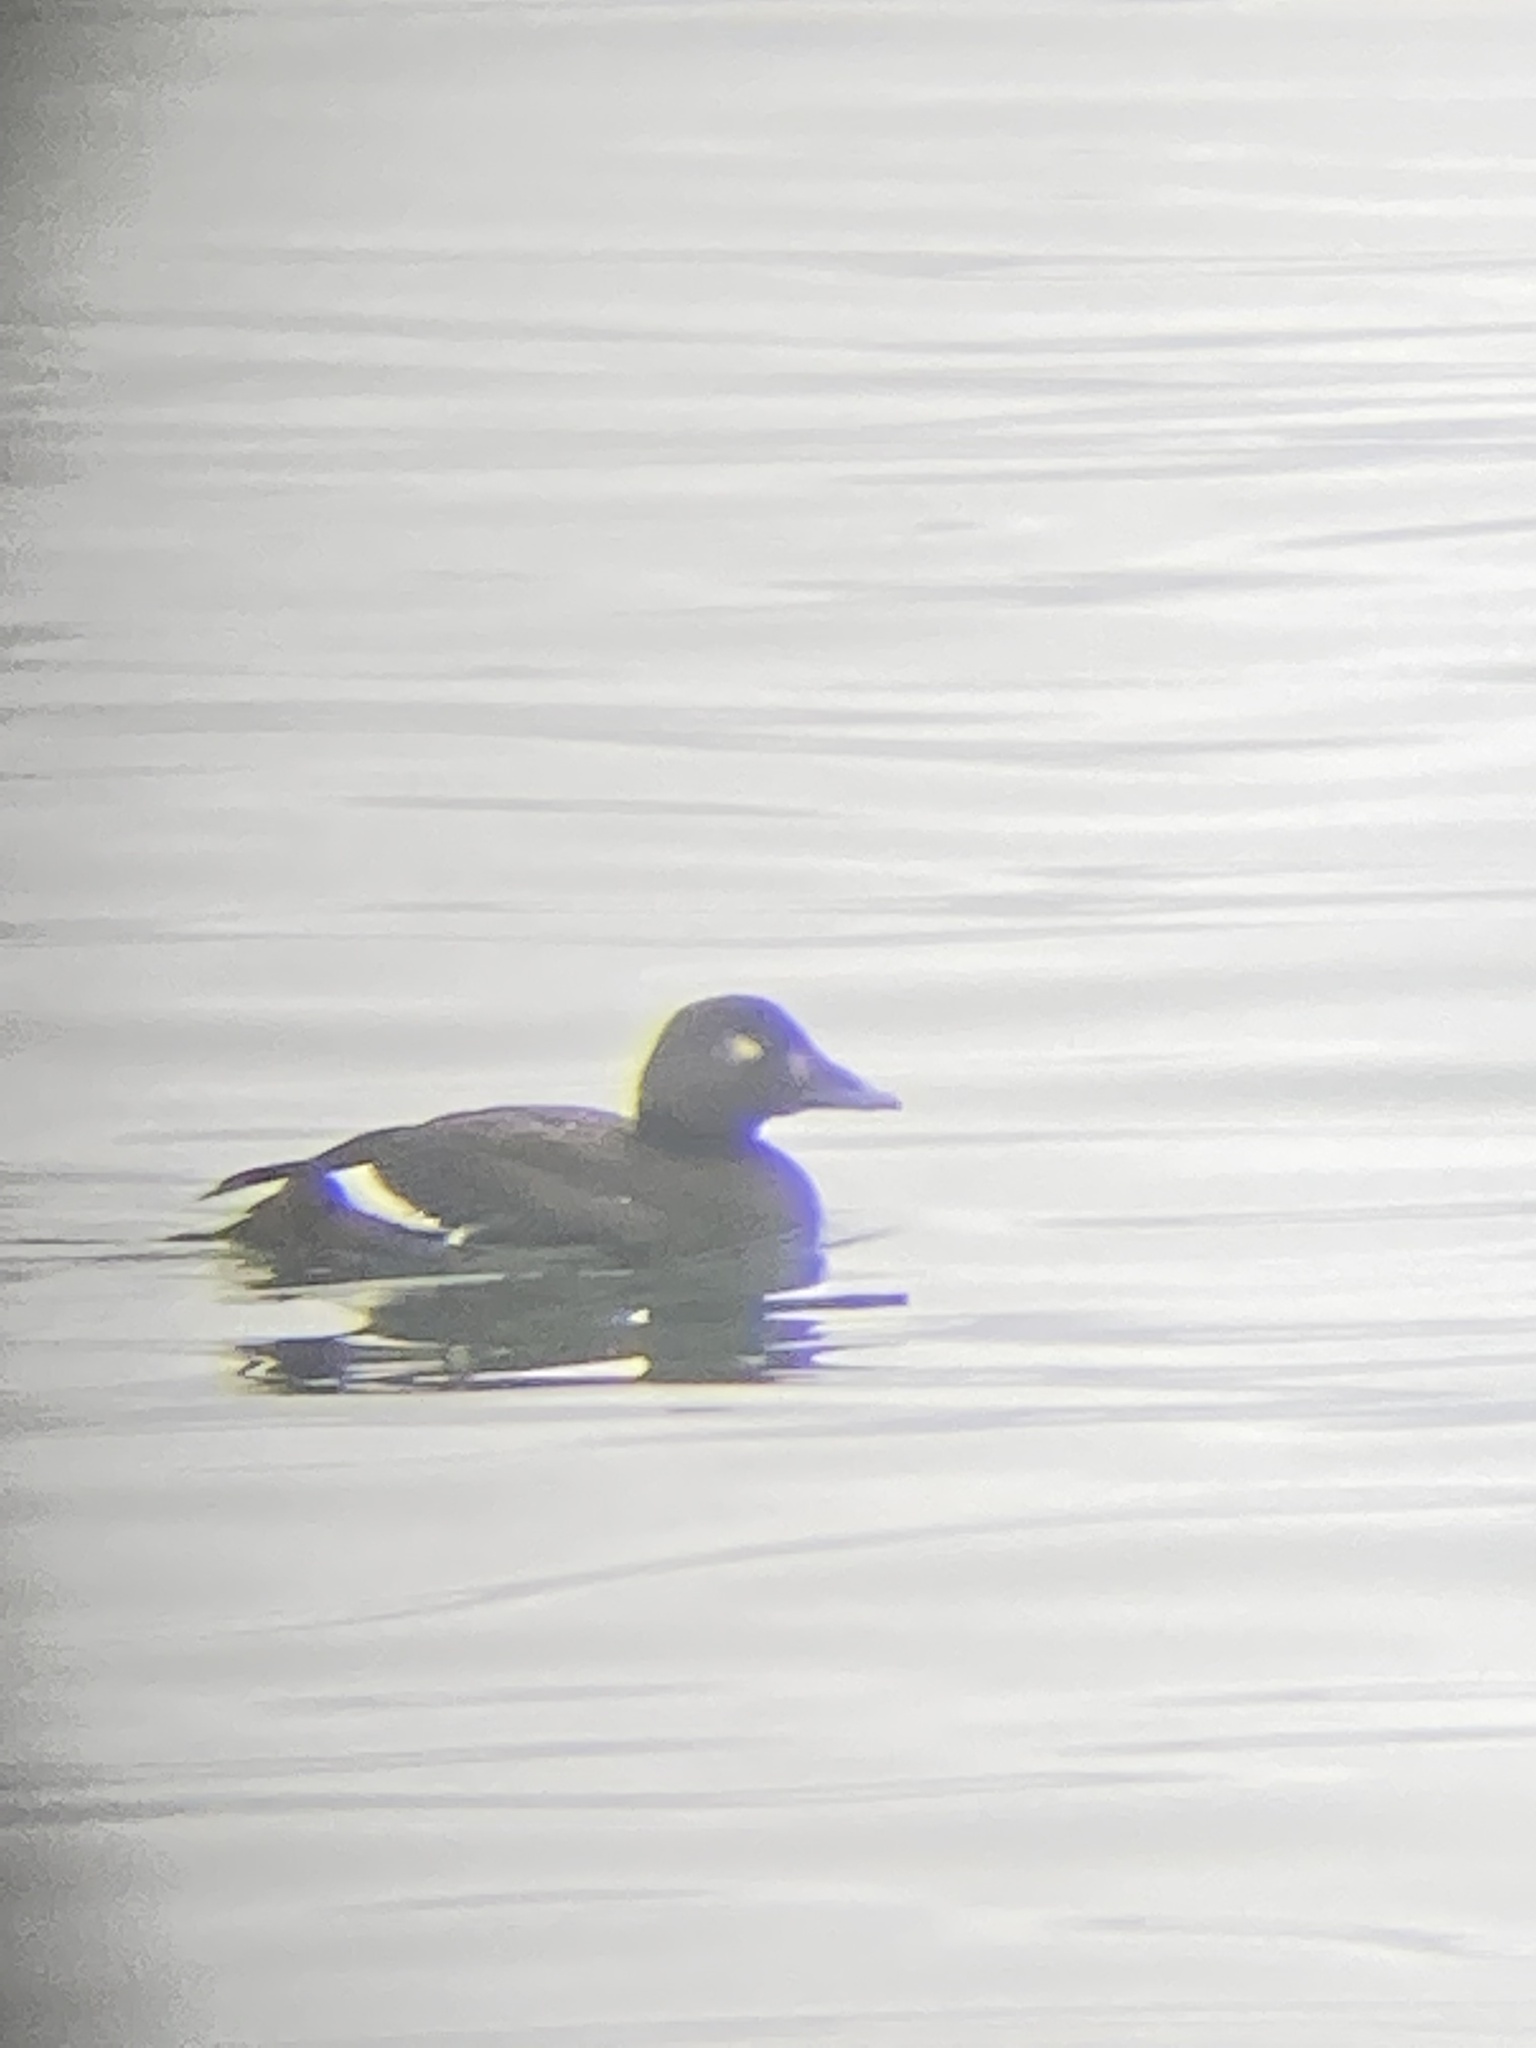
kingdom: Animalia
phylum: Chordata
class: Aves
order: Anseriformes
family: Anatidae
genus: Melanitta
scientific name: Melanitta deglandi
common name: White-winged scoter
